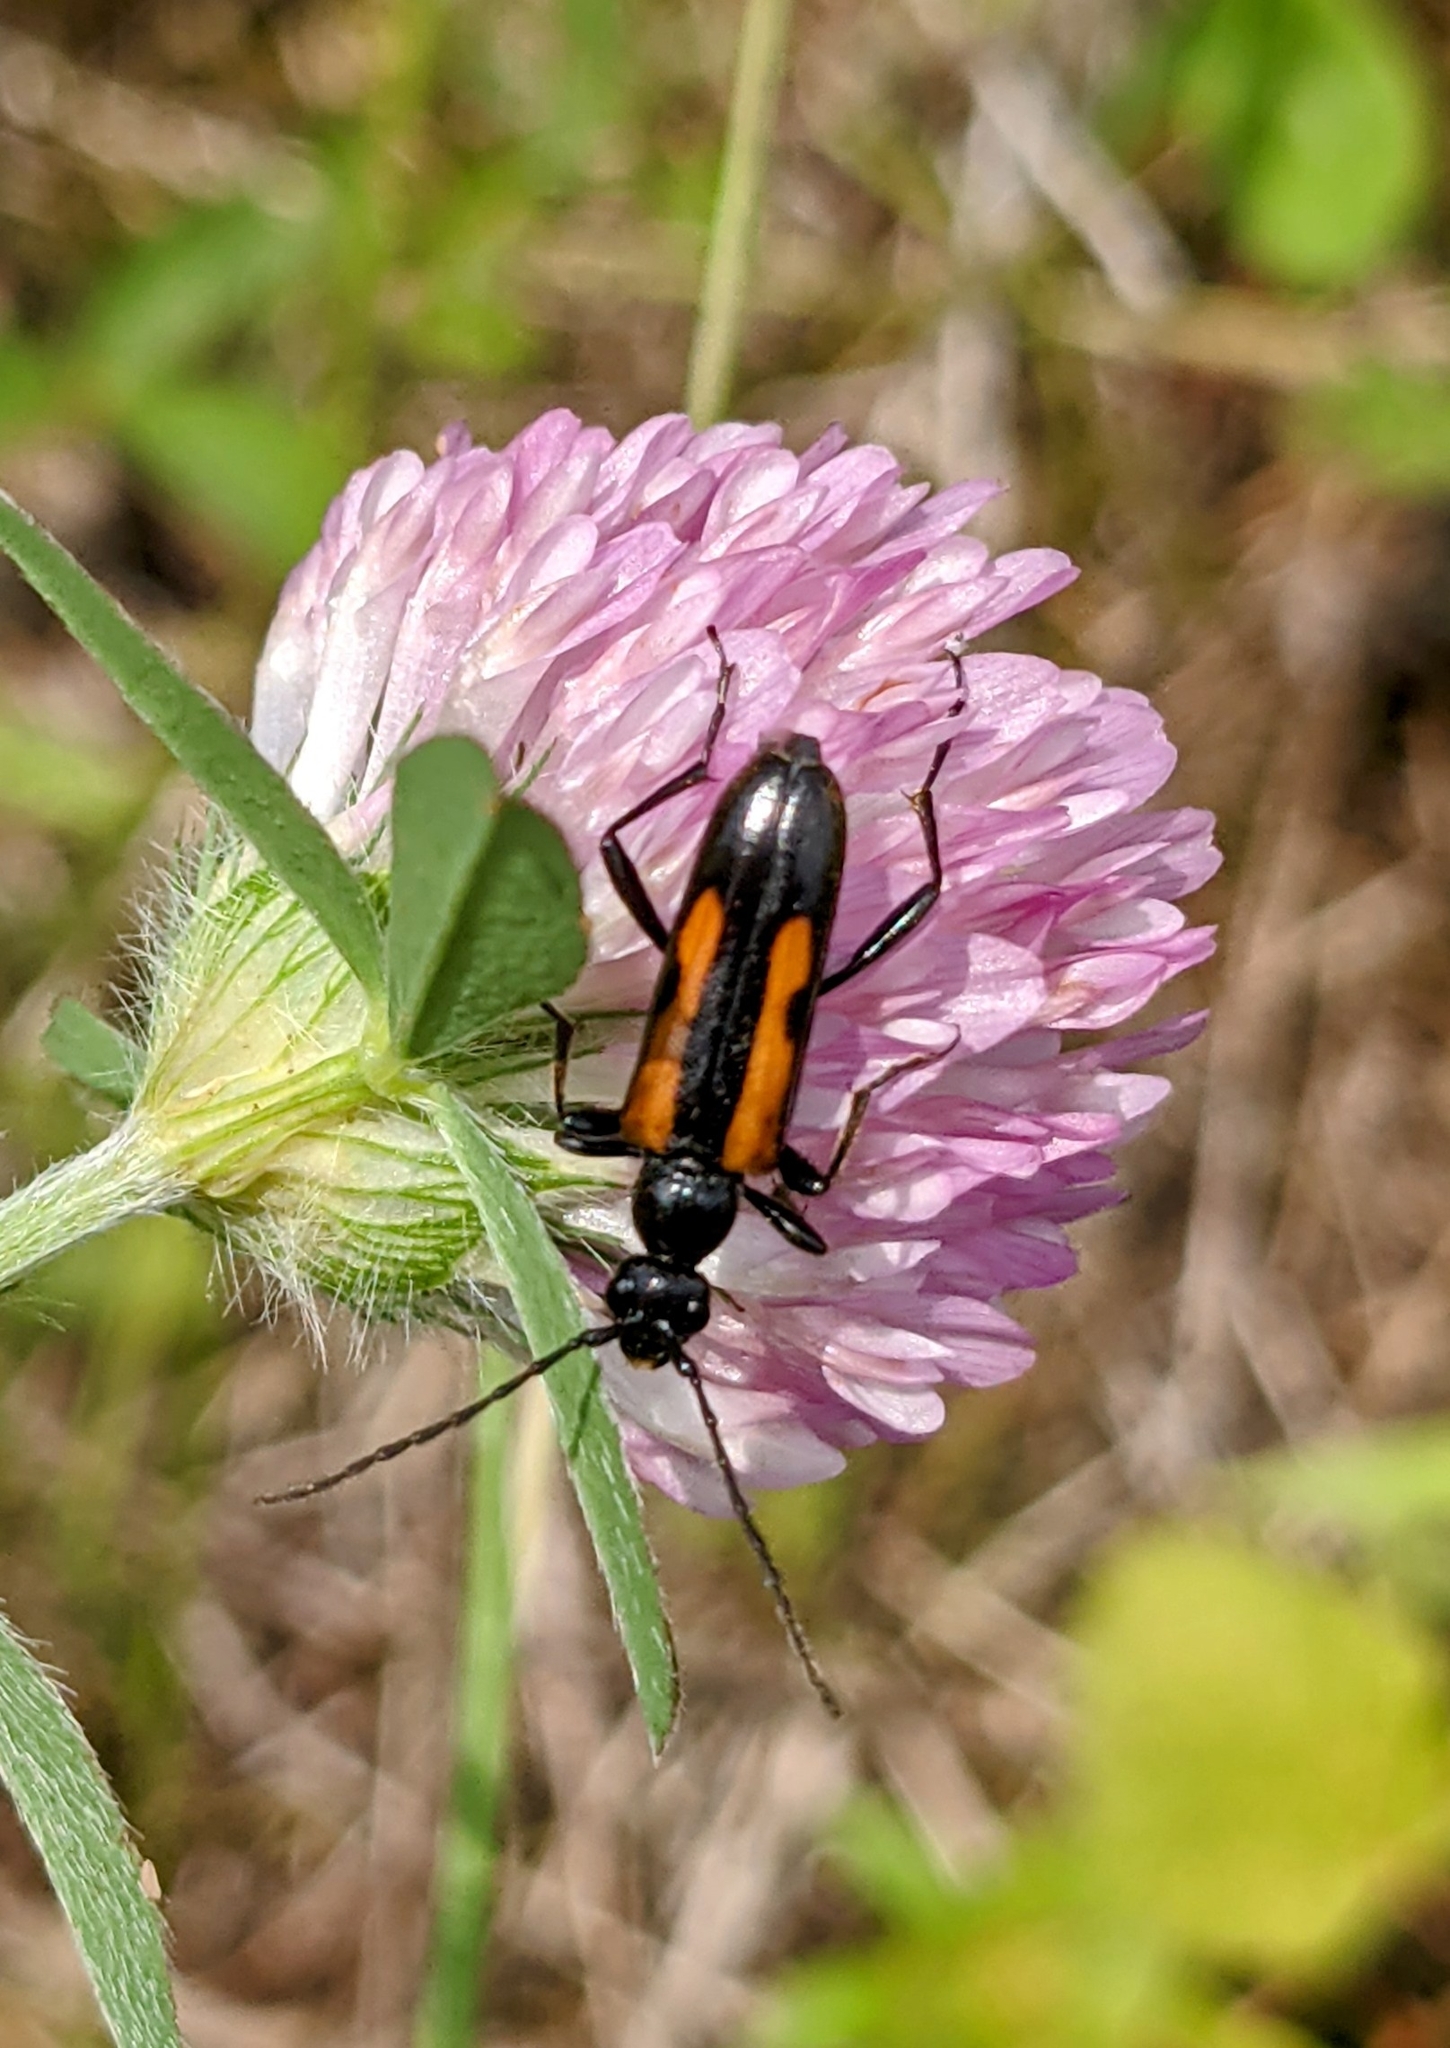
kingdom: Animalia
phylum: Arthropoda
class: Insecta
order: Coleoptera
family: Cerambycidae
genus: Strangalepta
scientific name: Strangalepta abbreviata
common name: Strangalepta flower longhorn beetle
